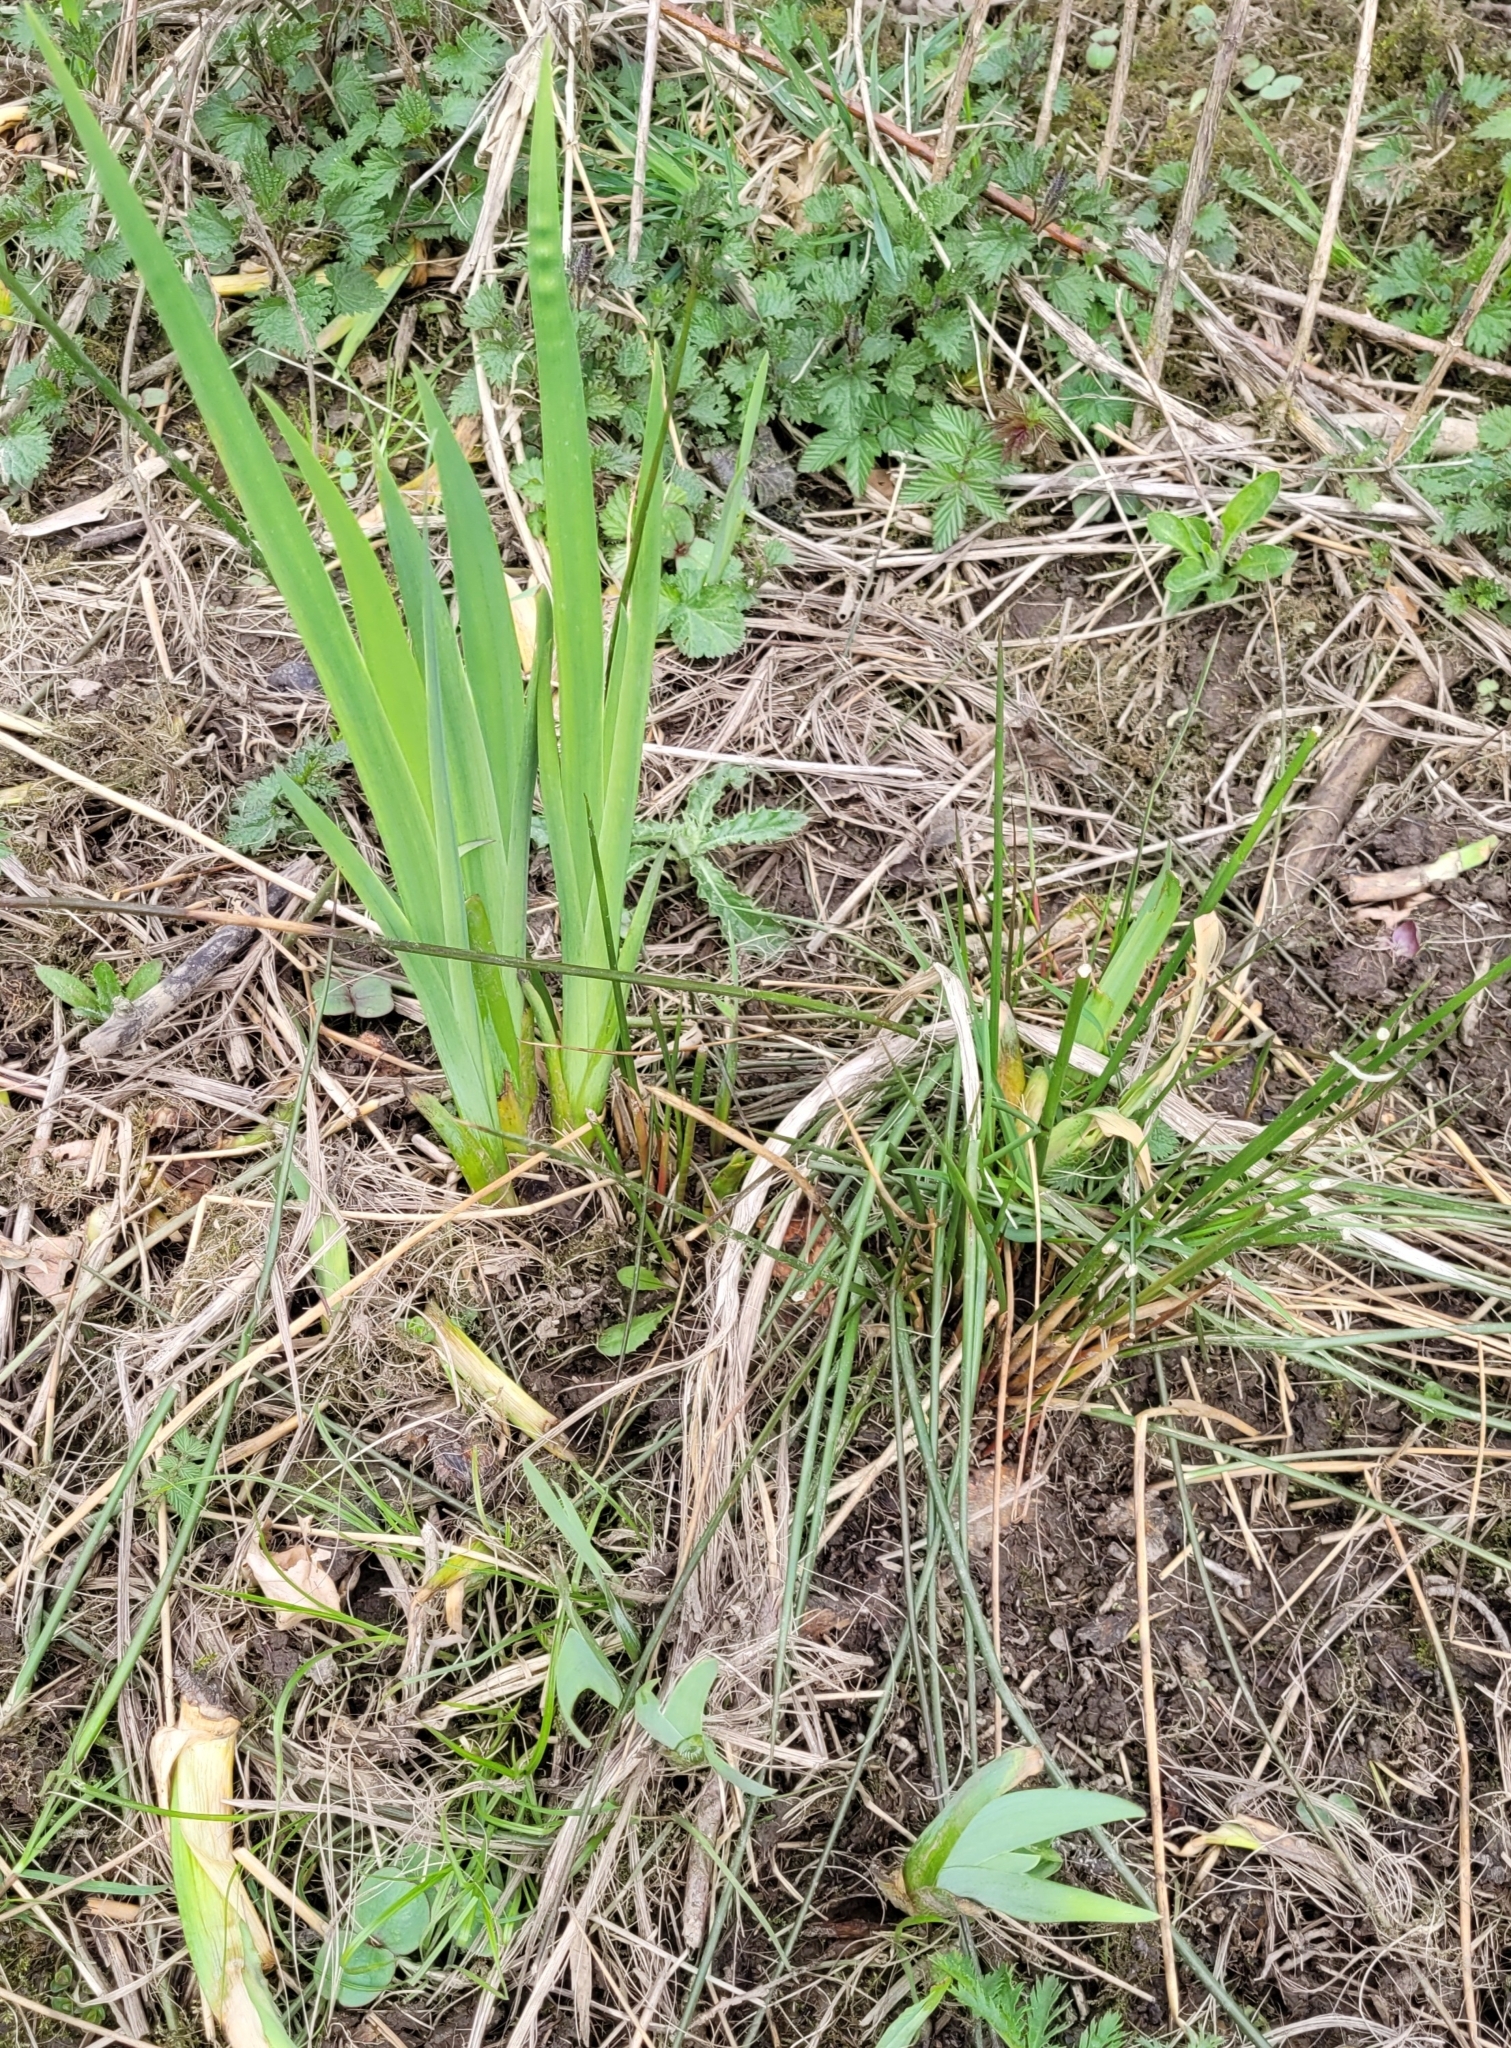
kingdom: Plantae
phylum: Tracheophyta
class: Liliopsida
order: Asparagales
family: Iridaceae
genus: Iris
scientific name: Iris pseudacorus
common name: Yellow flag
